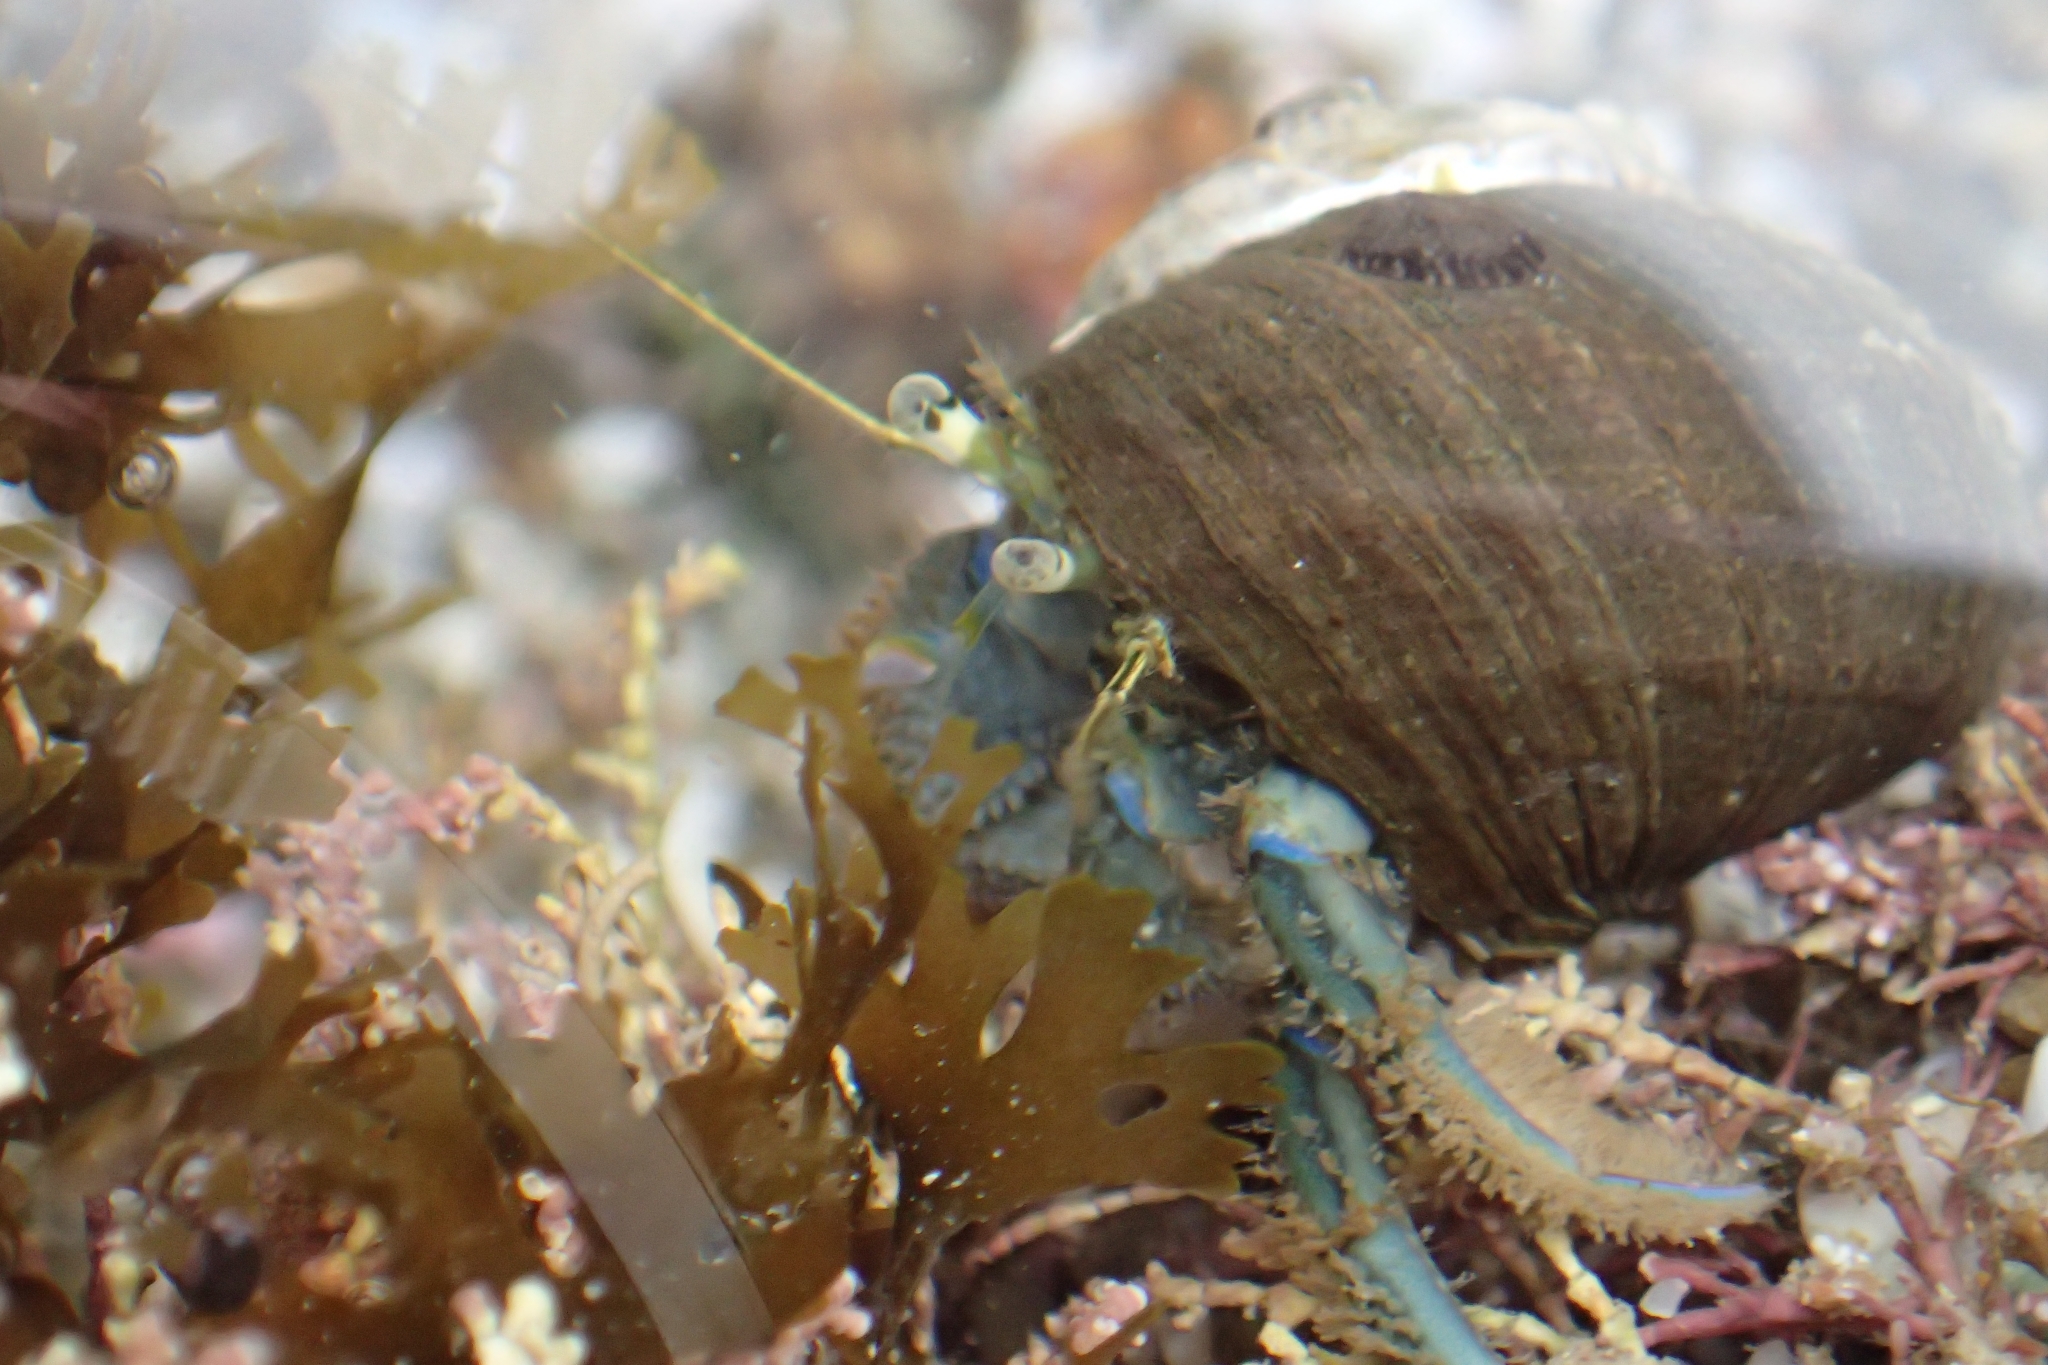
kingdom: Animalia
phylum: Arthropoda
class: Malacostraca
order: Decapoda
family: Paguridae
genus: Pagurus
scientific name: Pagurus novizealandiae
